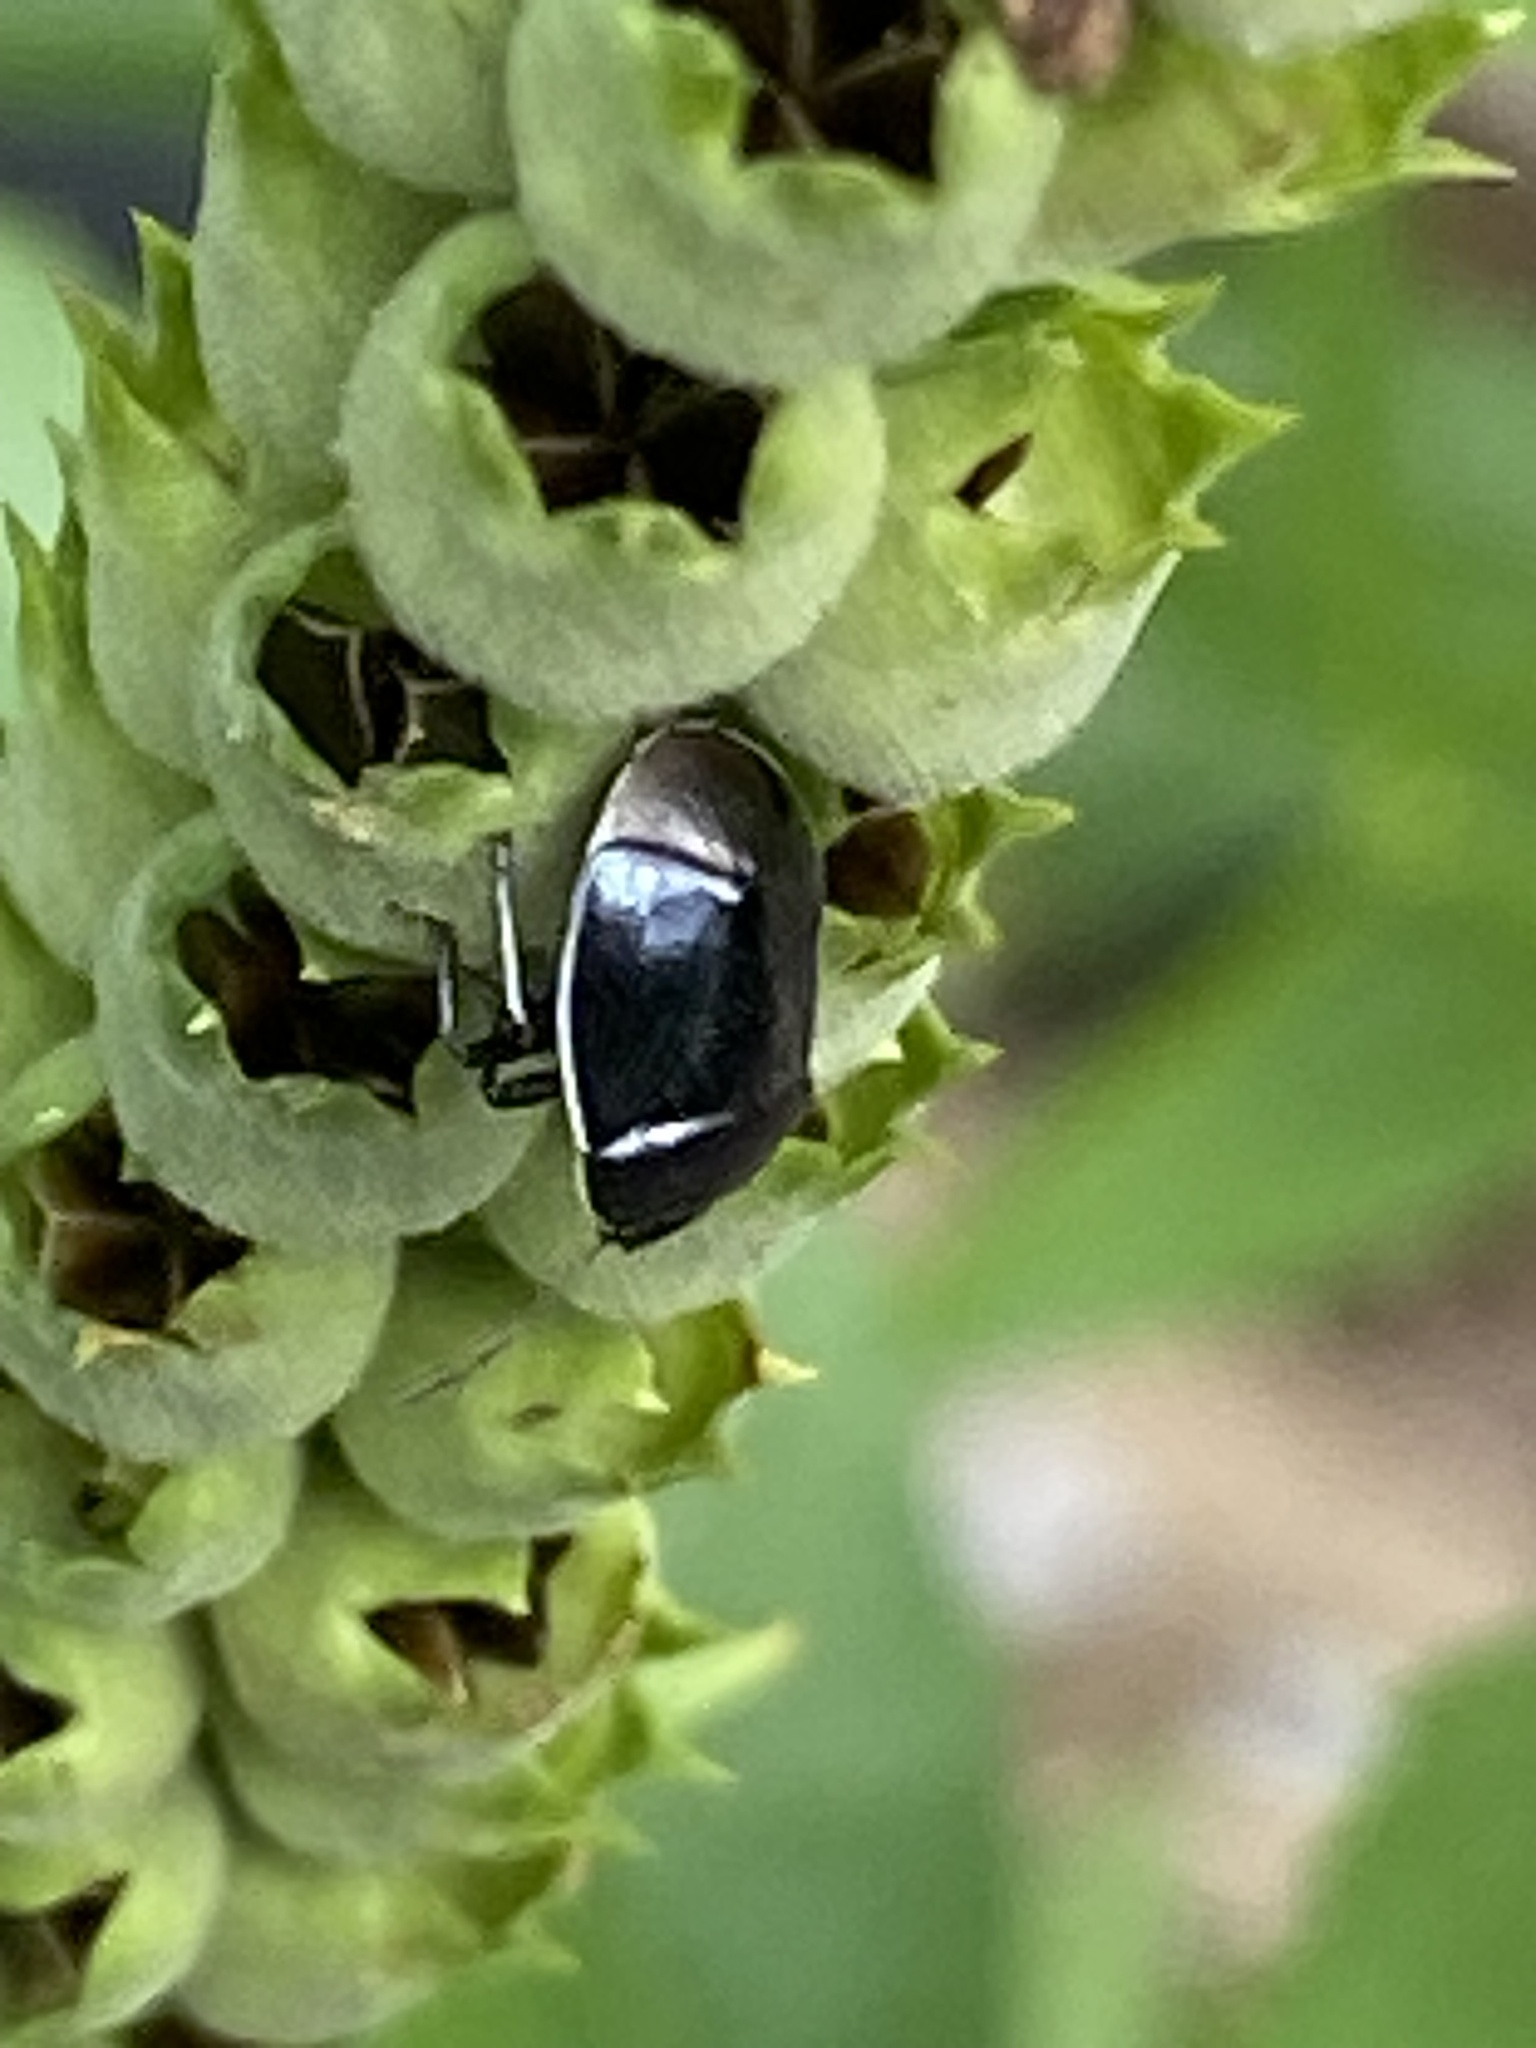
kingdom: Animalia
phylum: Arthropoda
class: Insecta
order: Hemiptera
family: Cydnidae
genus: Sehirus
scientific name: Sehirus cinctus
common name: White-margined burrower bug
